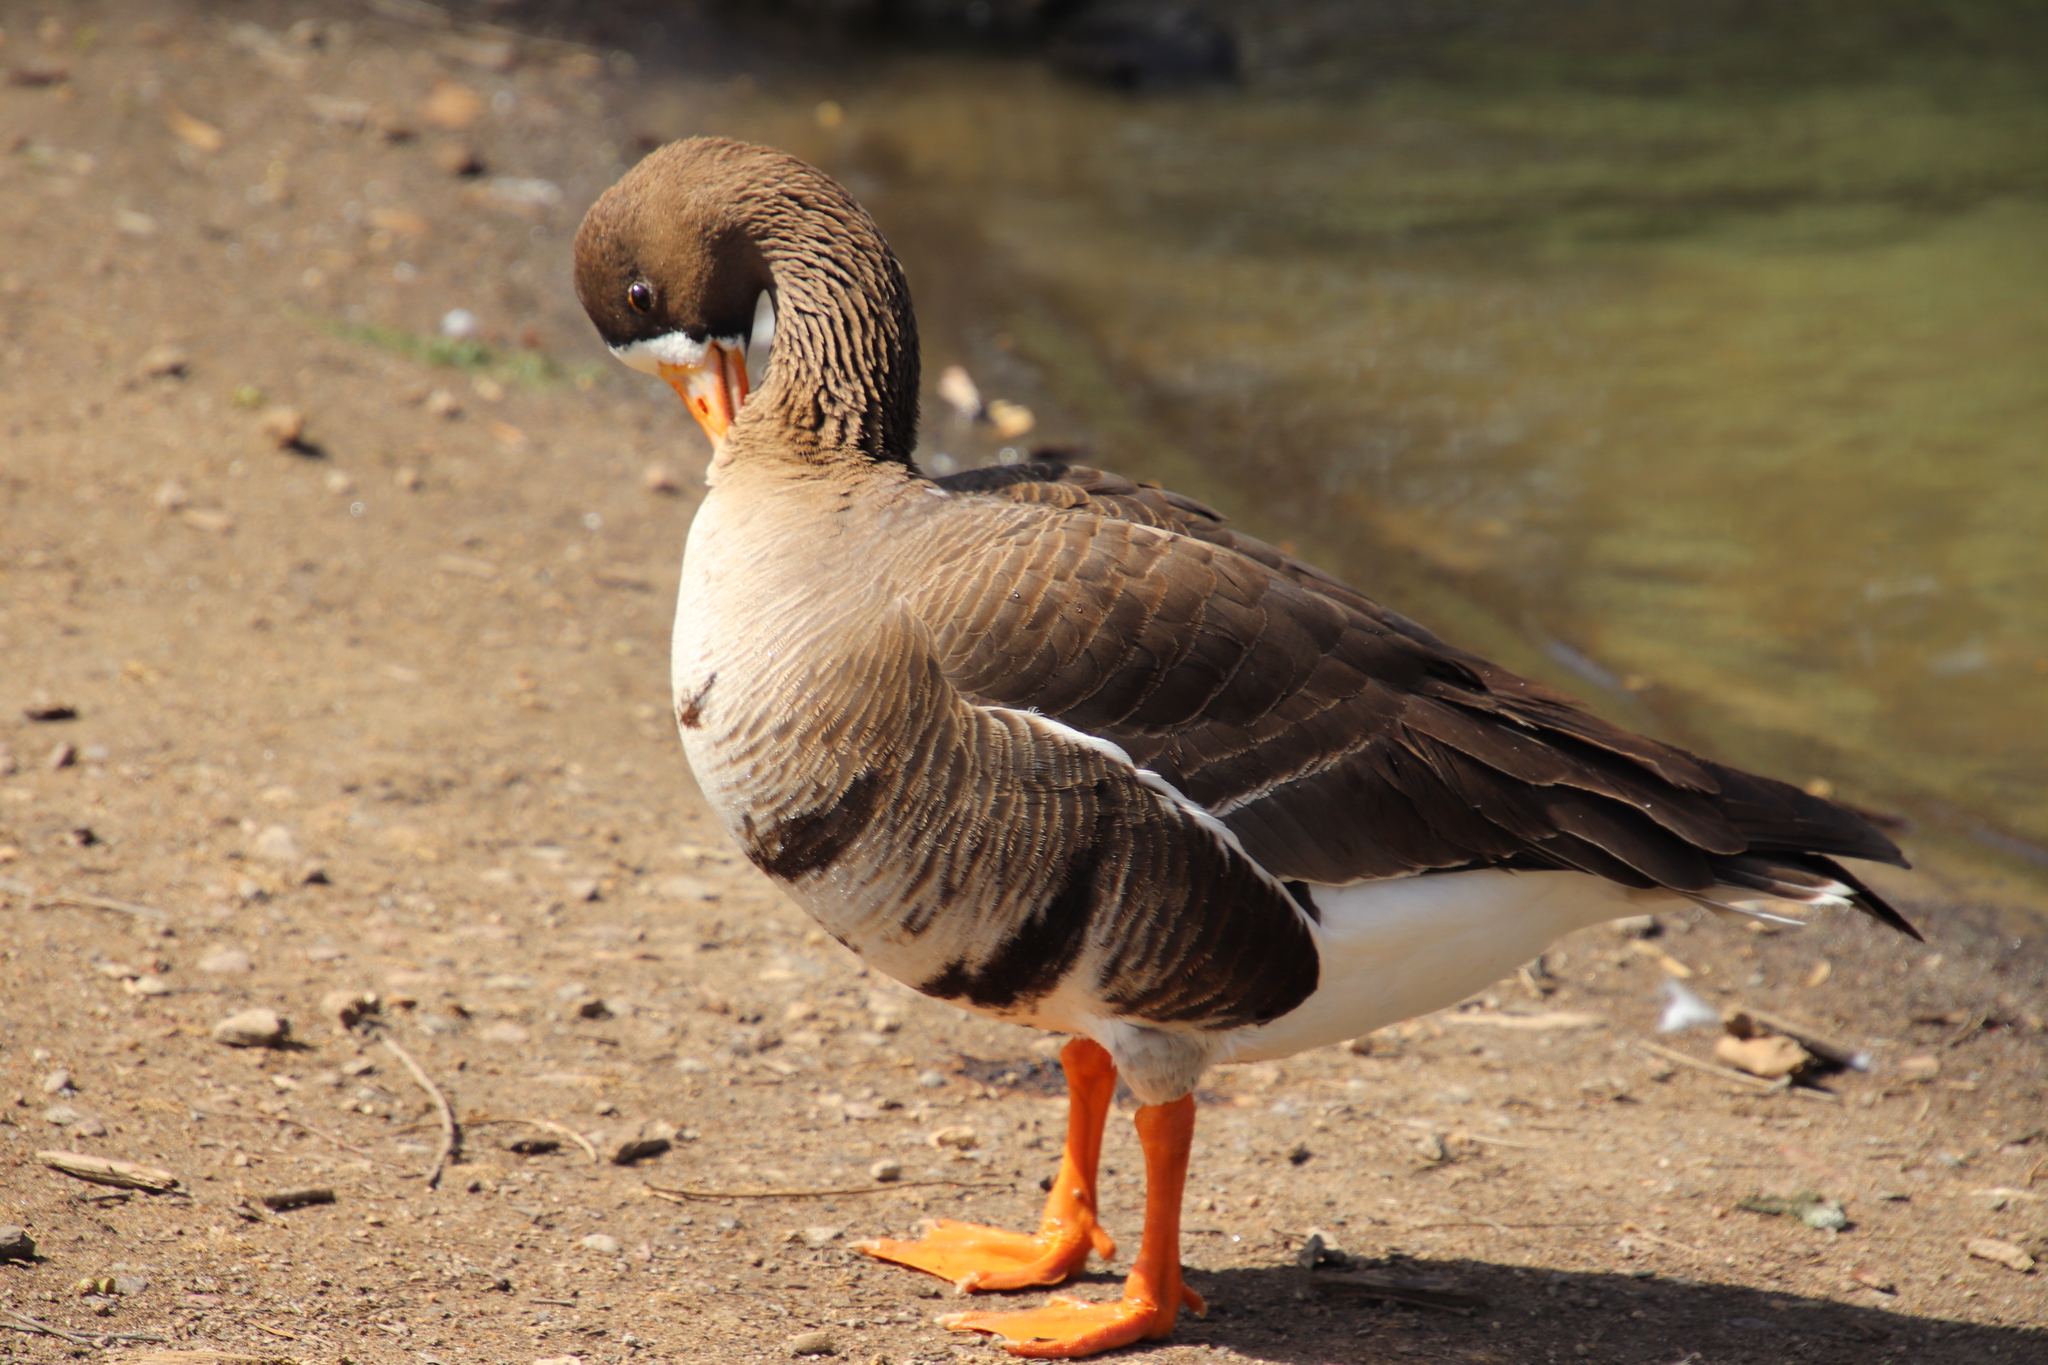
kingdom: Animalia
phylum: Chordata
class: Aves
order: Anseriformes
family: Anatidae
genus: Anser
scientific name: Anser albifrons
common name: Greater white-fronted goose
